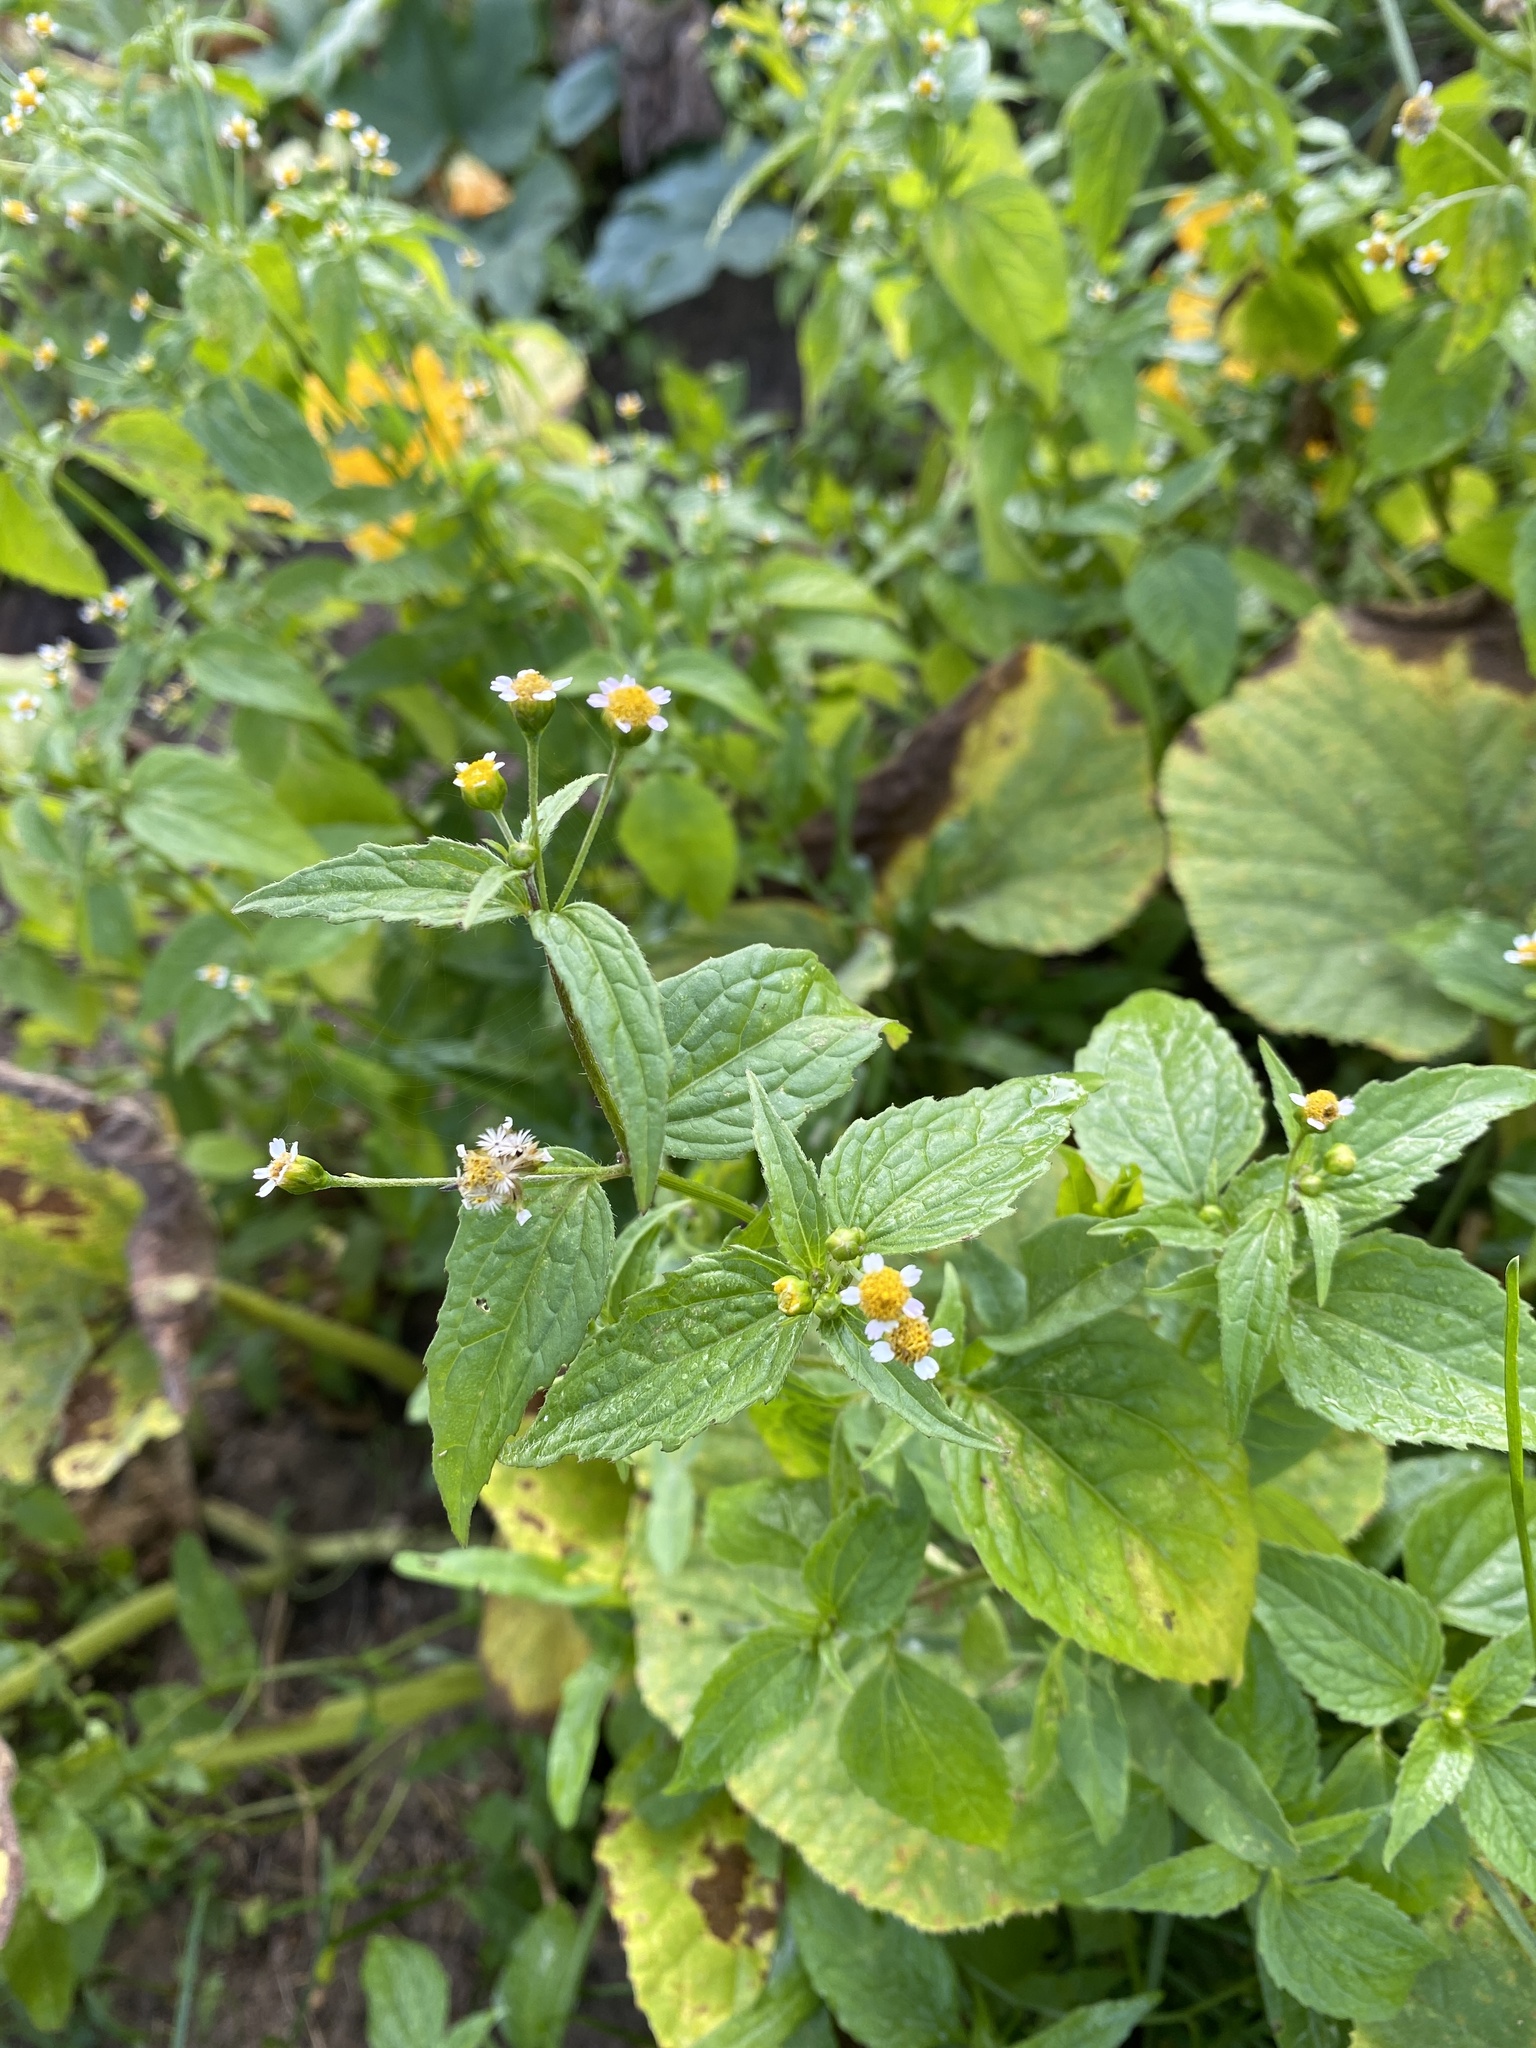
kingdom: Plantae
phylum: Tracheophyta
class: Magnoliopsida
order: Asterales
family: Asteraceae
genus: Galinsoga
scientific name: Galinsoga parviflora
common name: Gallant soldier
